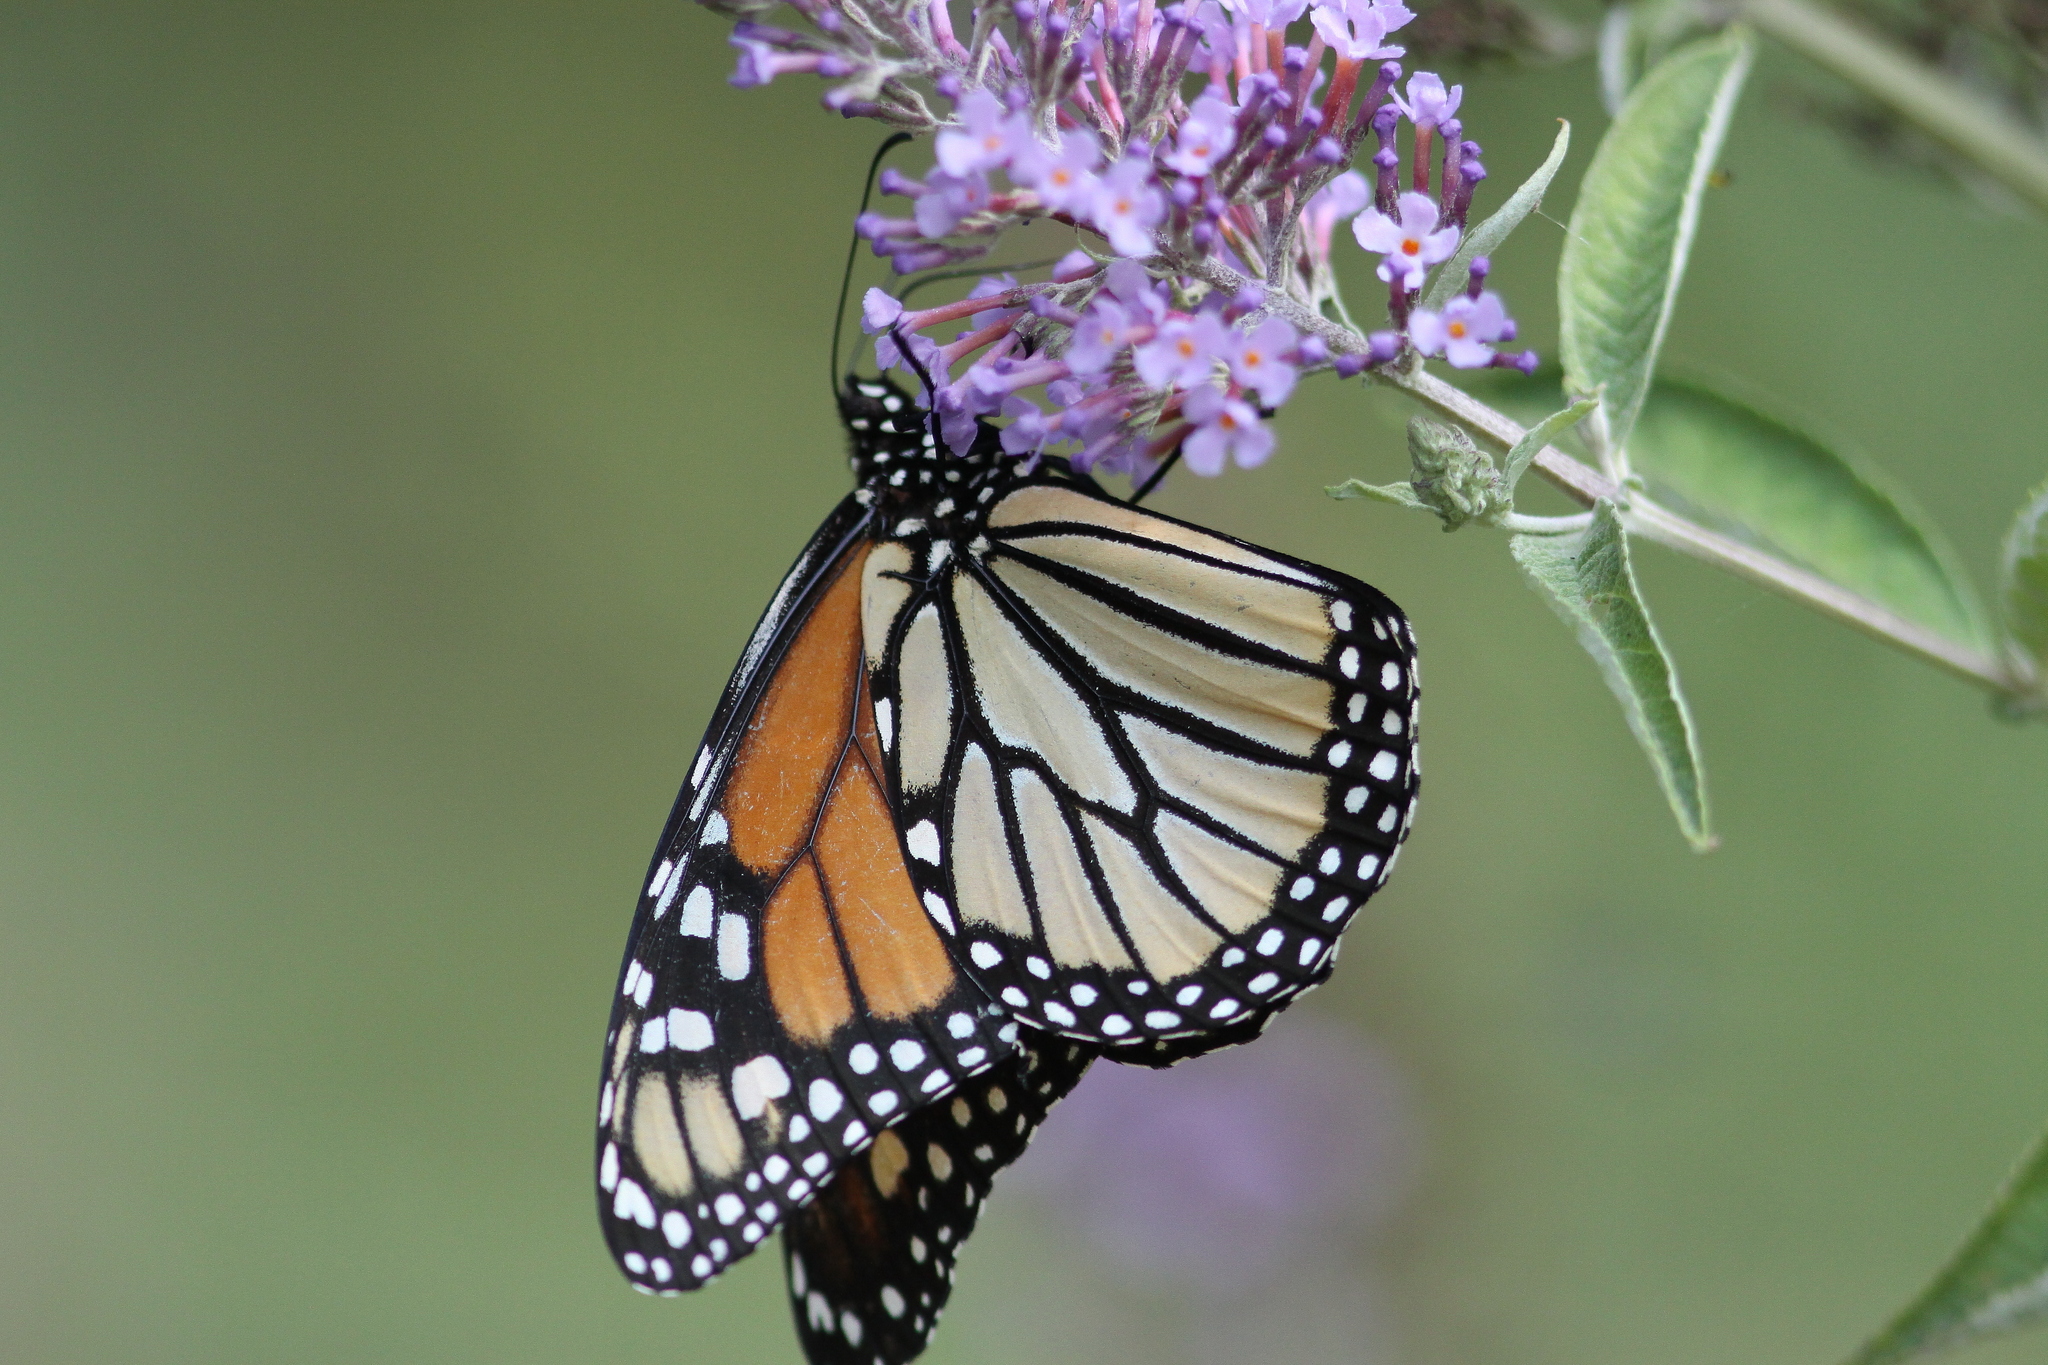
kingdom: Animalia
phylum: Arthropoda
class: Insecta
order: Lepidoptera
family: Nymphalidae
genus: Danaus
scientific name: Danaus plexippus
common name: Monarch
